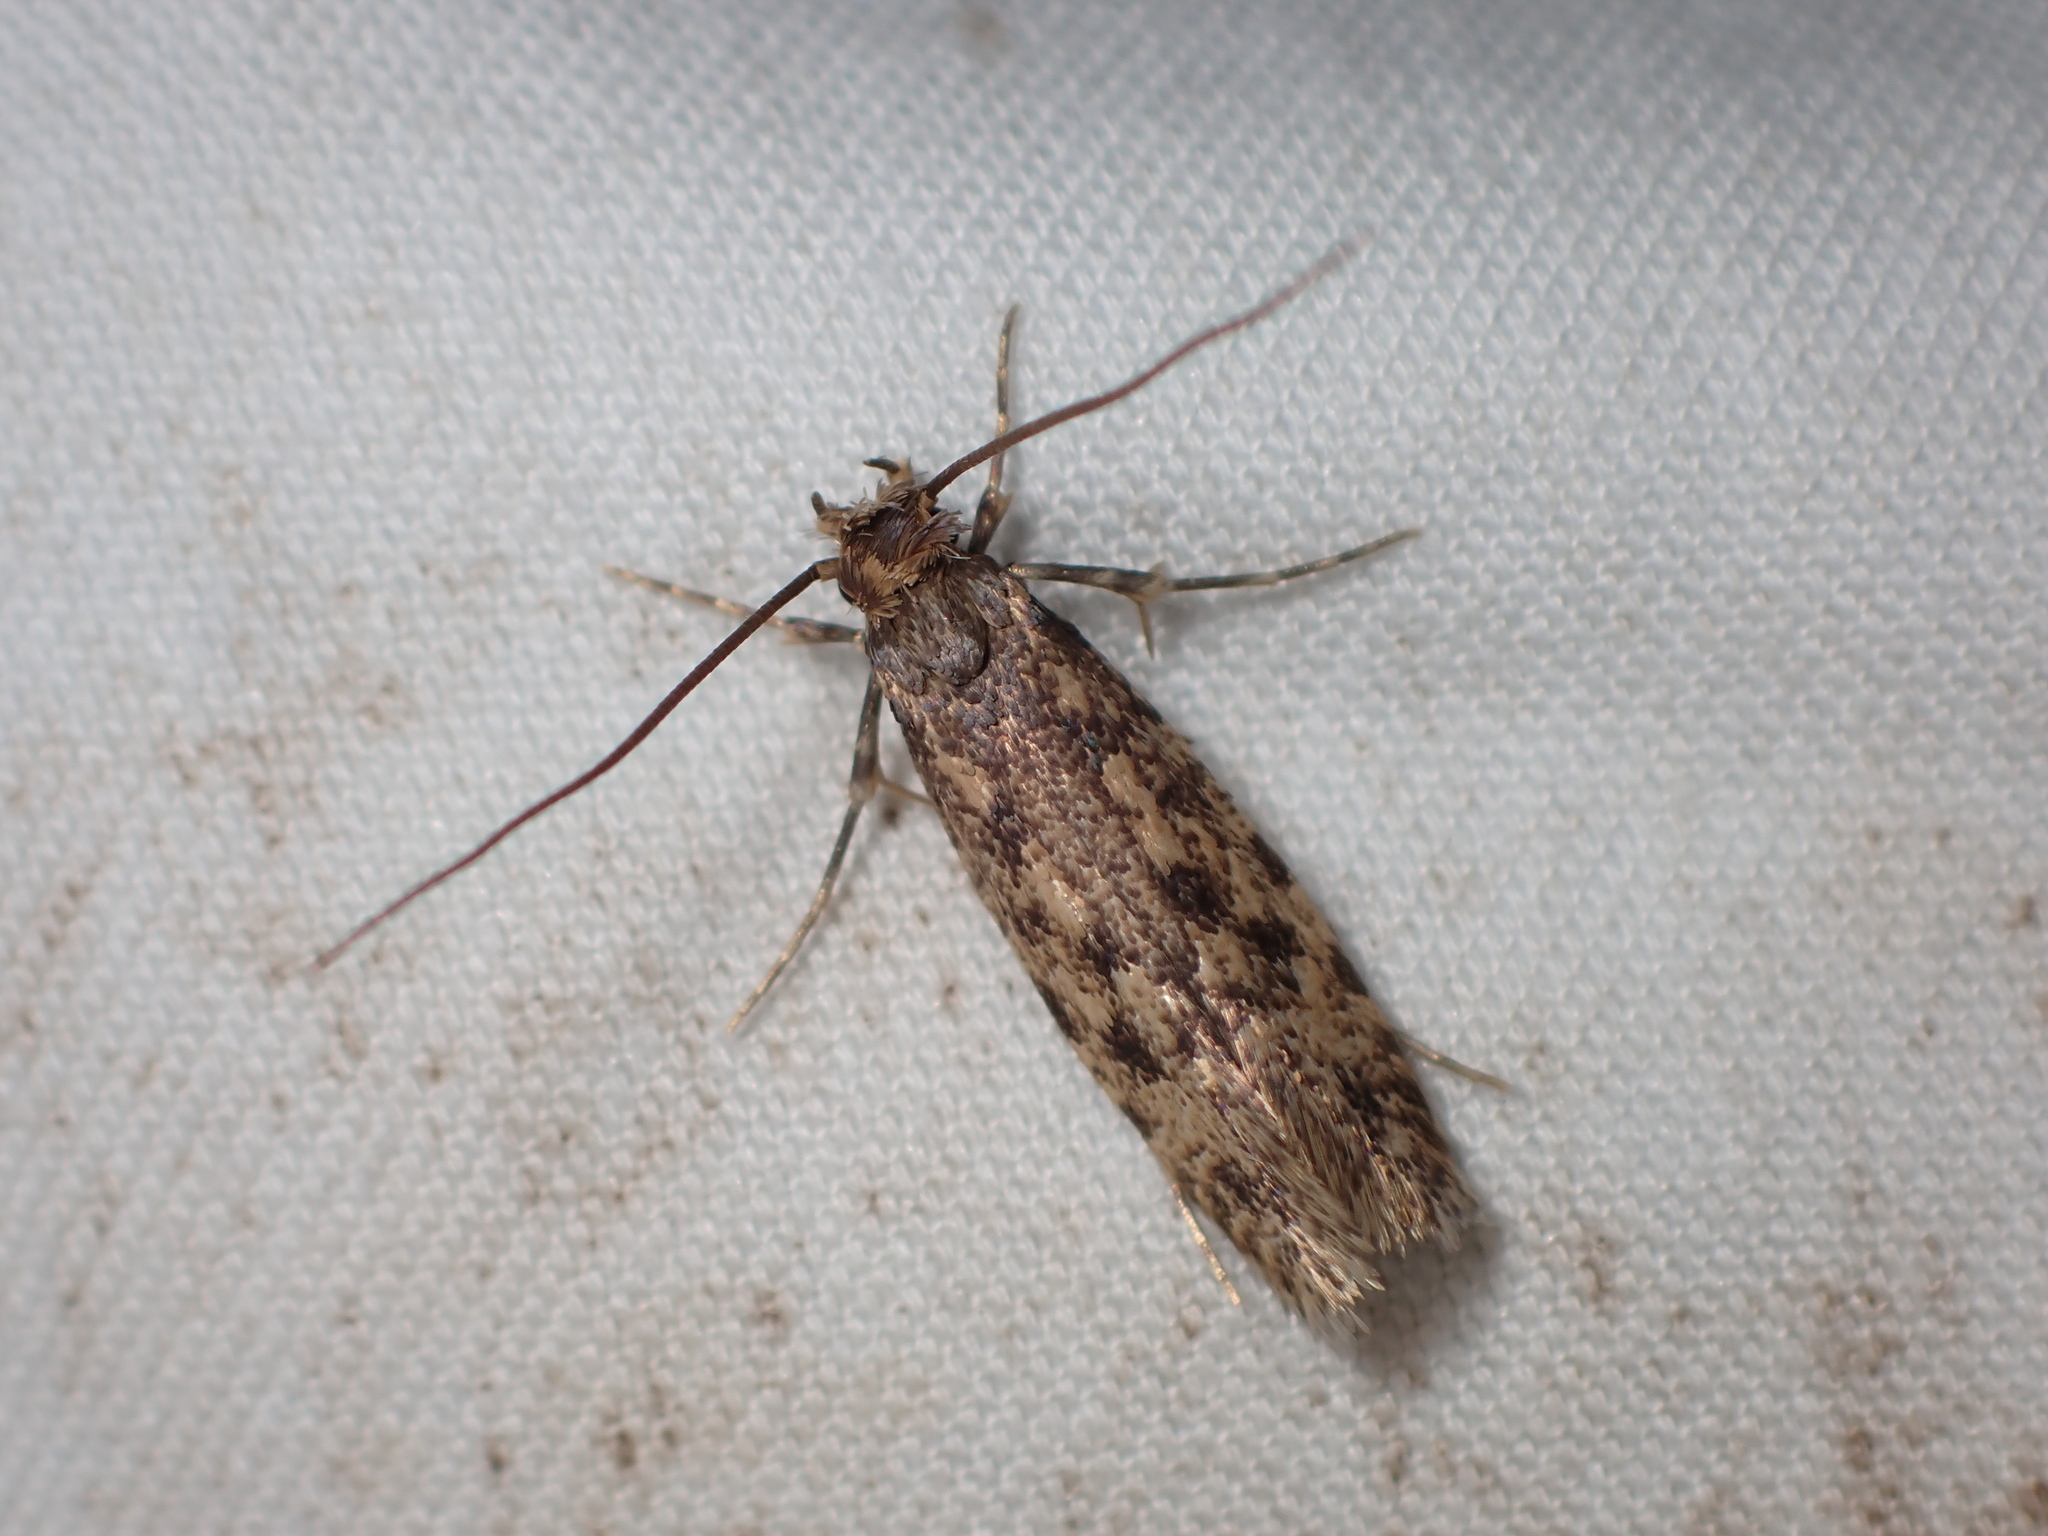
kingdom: Animalia
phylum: Arthropoda
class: Insecta
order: Lepidoptera
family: Tineidae
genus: Lindera
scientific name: Lindera tessellatella
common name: Moth
